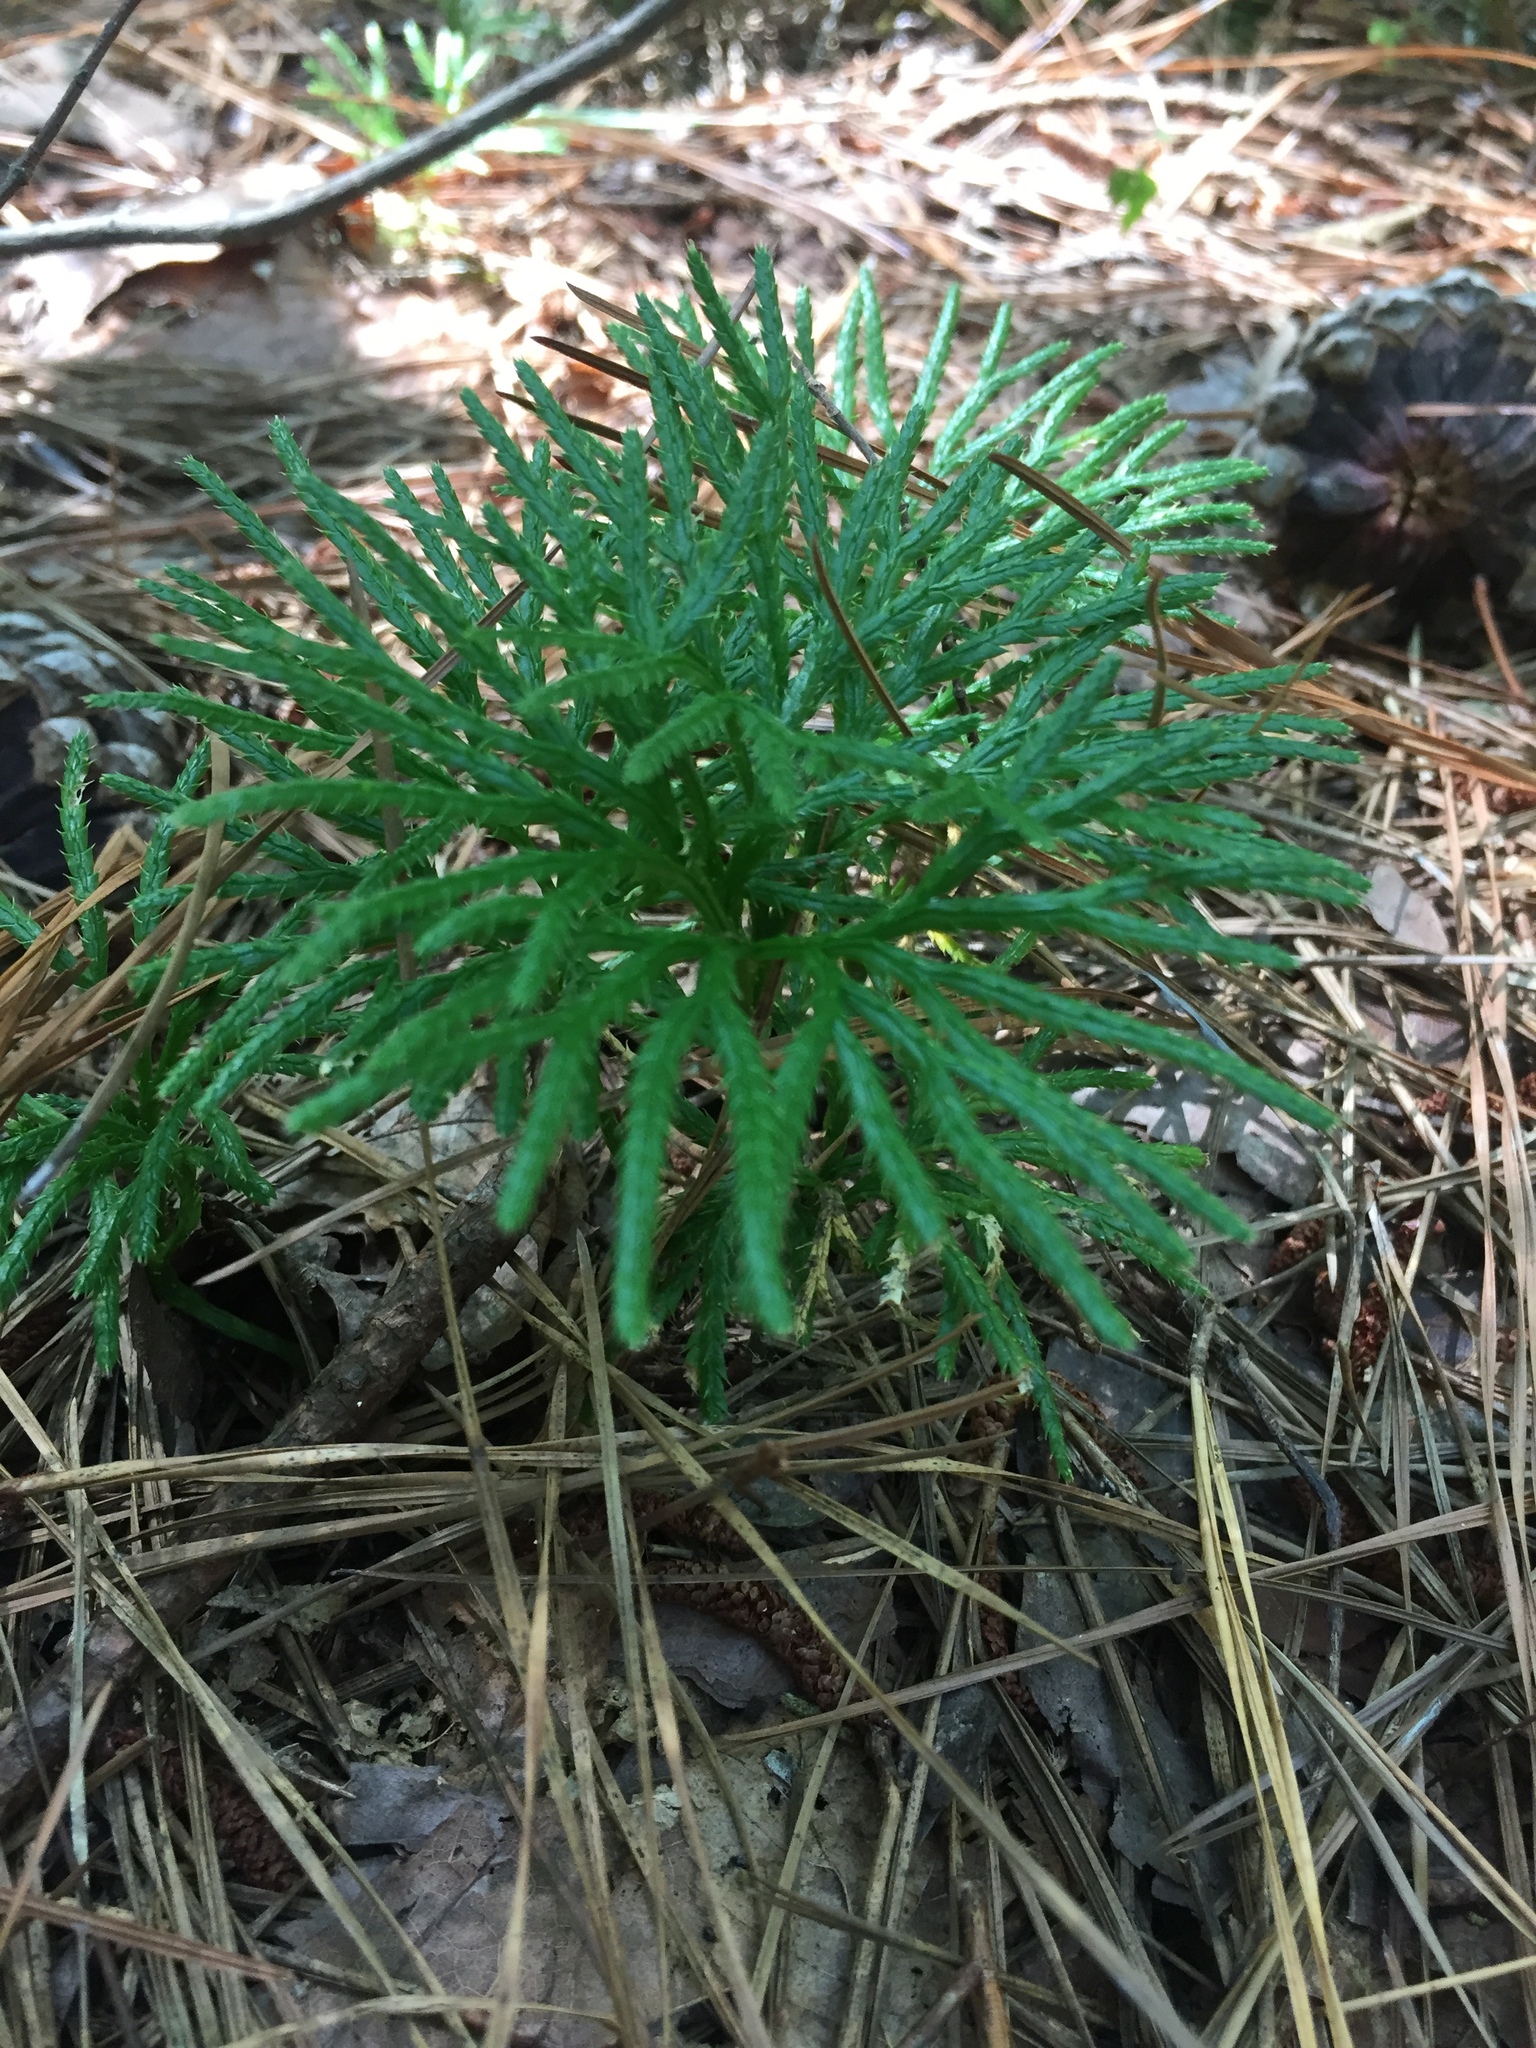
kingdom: Plantae
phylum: Tracheophyta
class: Lycopodiopsida
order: Lycopodiales
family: Lycopodiaceae
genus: Diphasiastrum
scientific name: Diphasiastrum digitatum
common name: Southern running-pine
